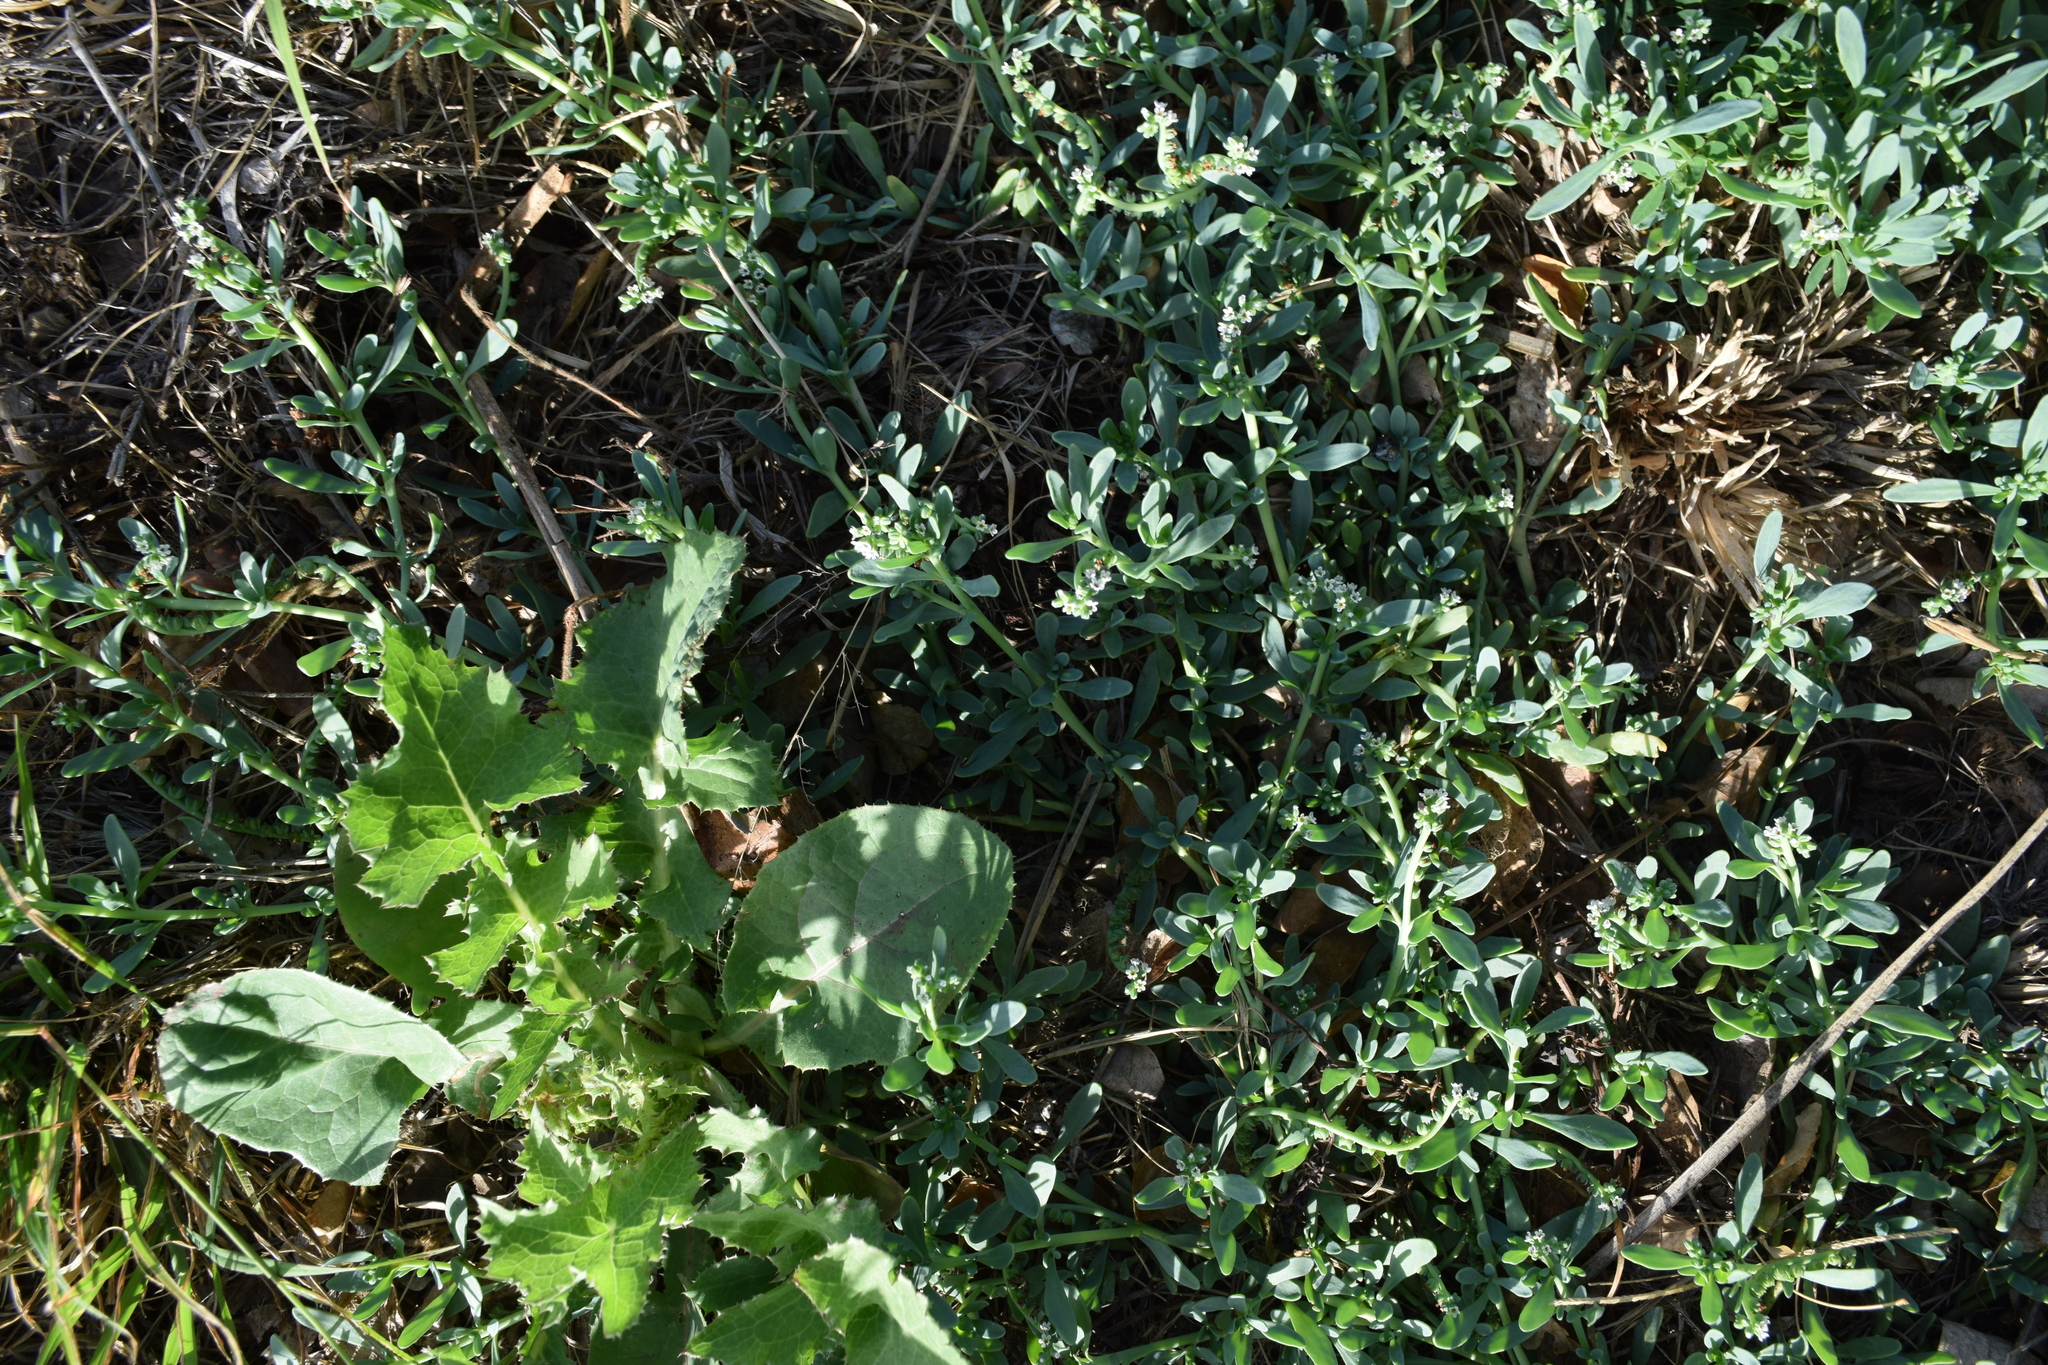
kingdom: Plantae
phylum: Tracheophyta
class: Magnoliopsida
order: Boraginales
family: Heliotropiaceae
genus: Heliotropium
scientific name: Heliotropium curassavicum
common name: Seaside heliotrope
